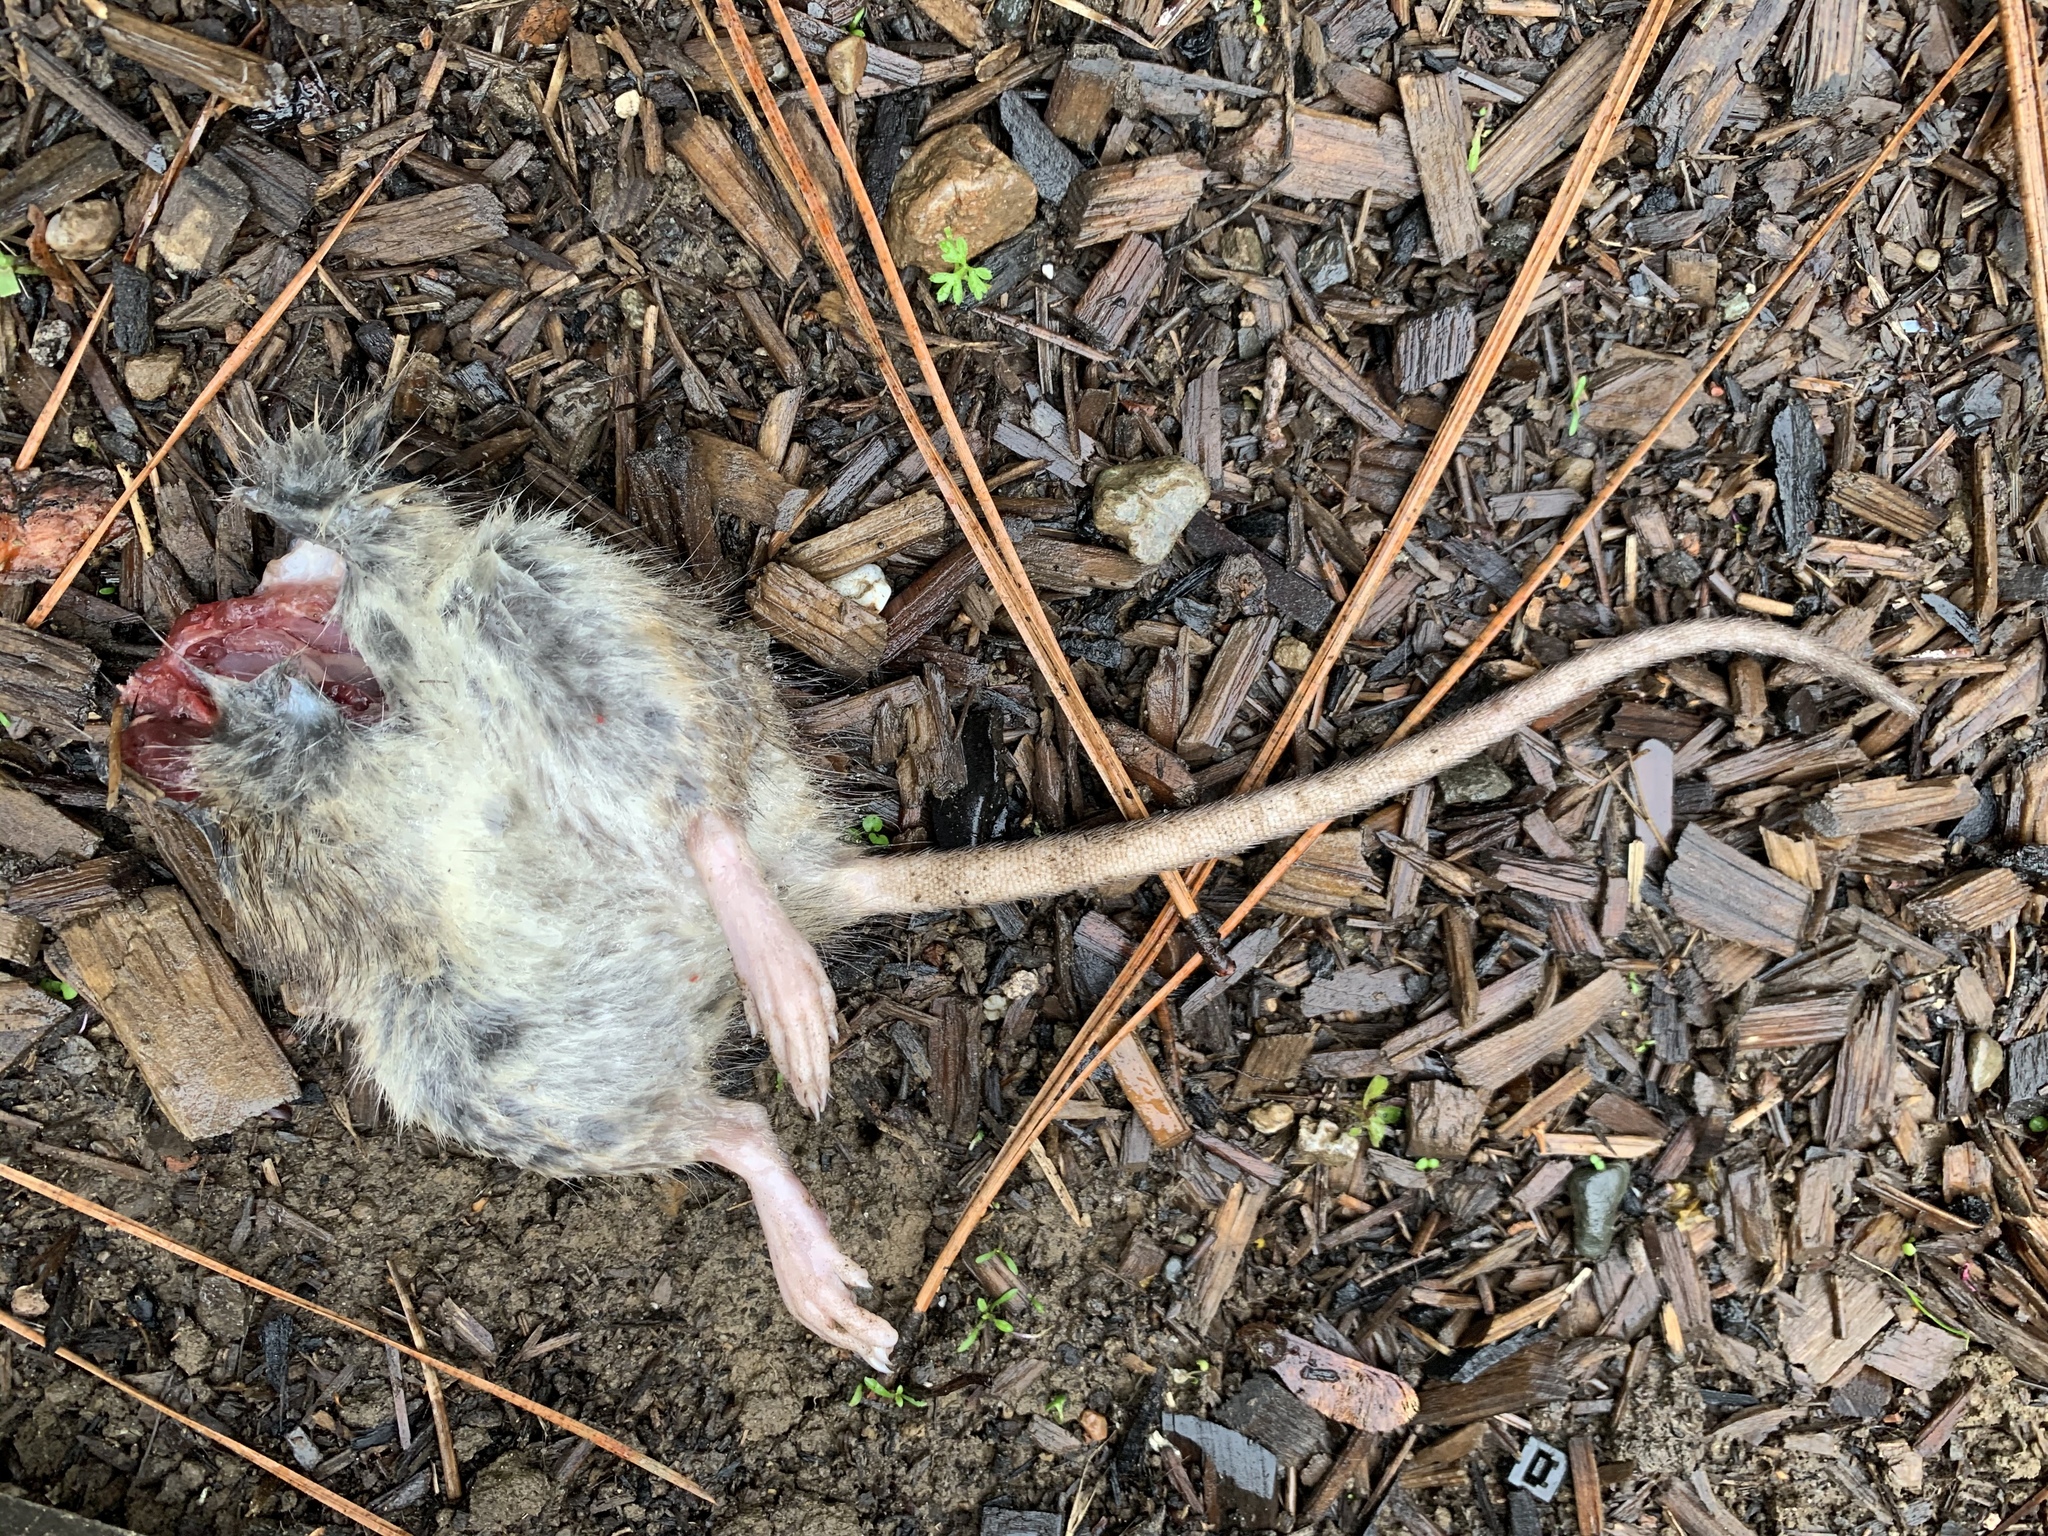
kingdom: Animalia
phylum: Chordata
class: Mammalia
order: Rodentia
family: Muridae
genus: Rattus
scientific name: Rattus norvegicus
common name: Brown rat
